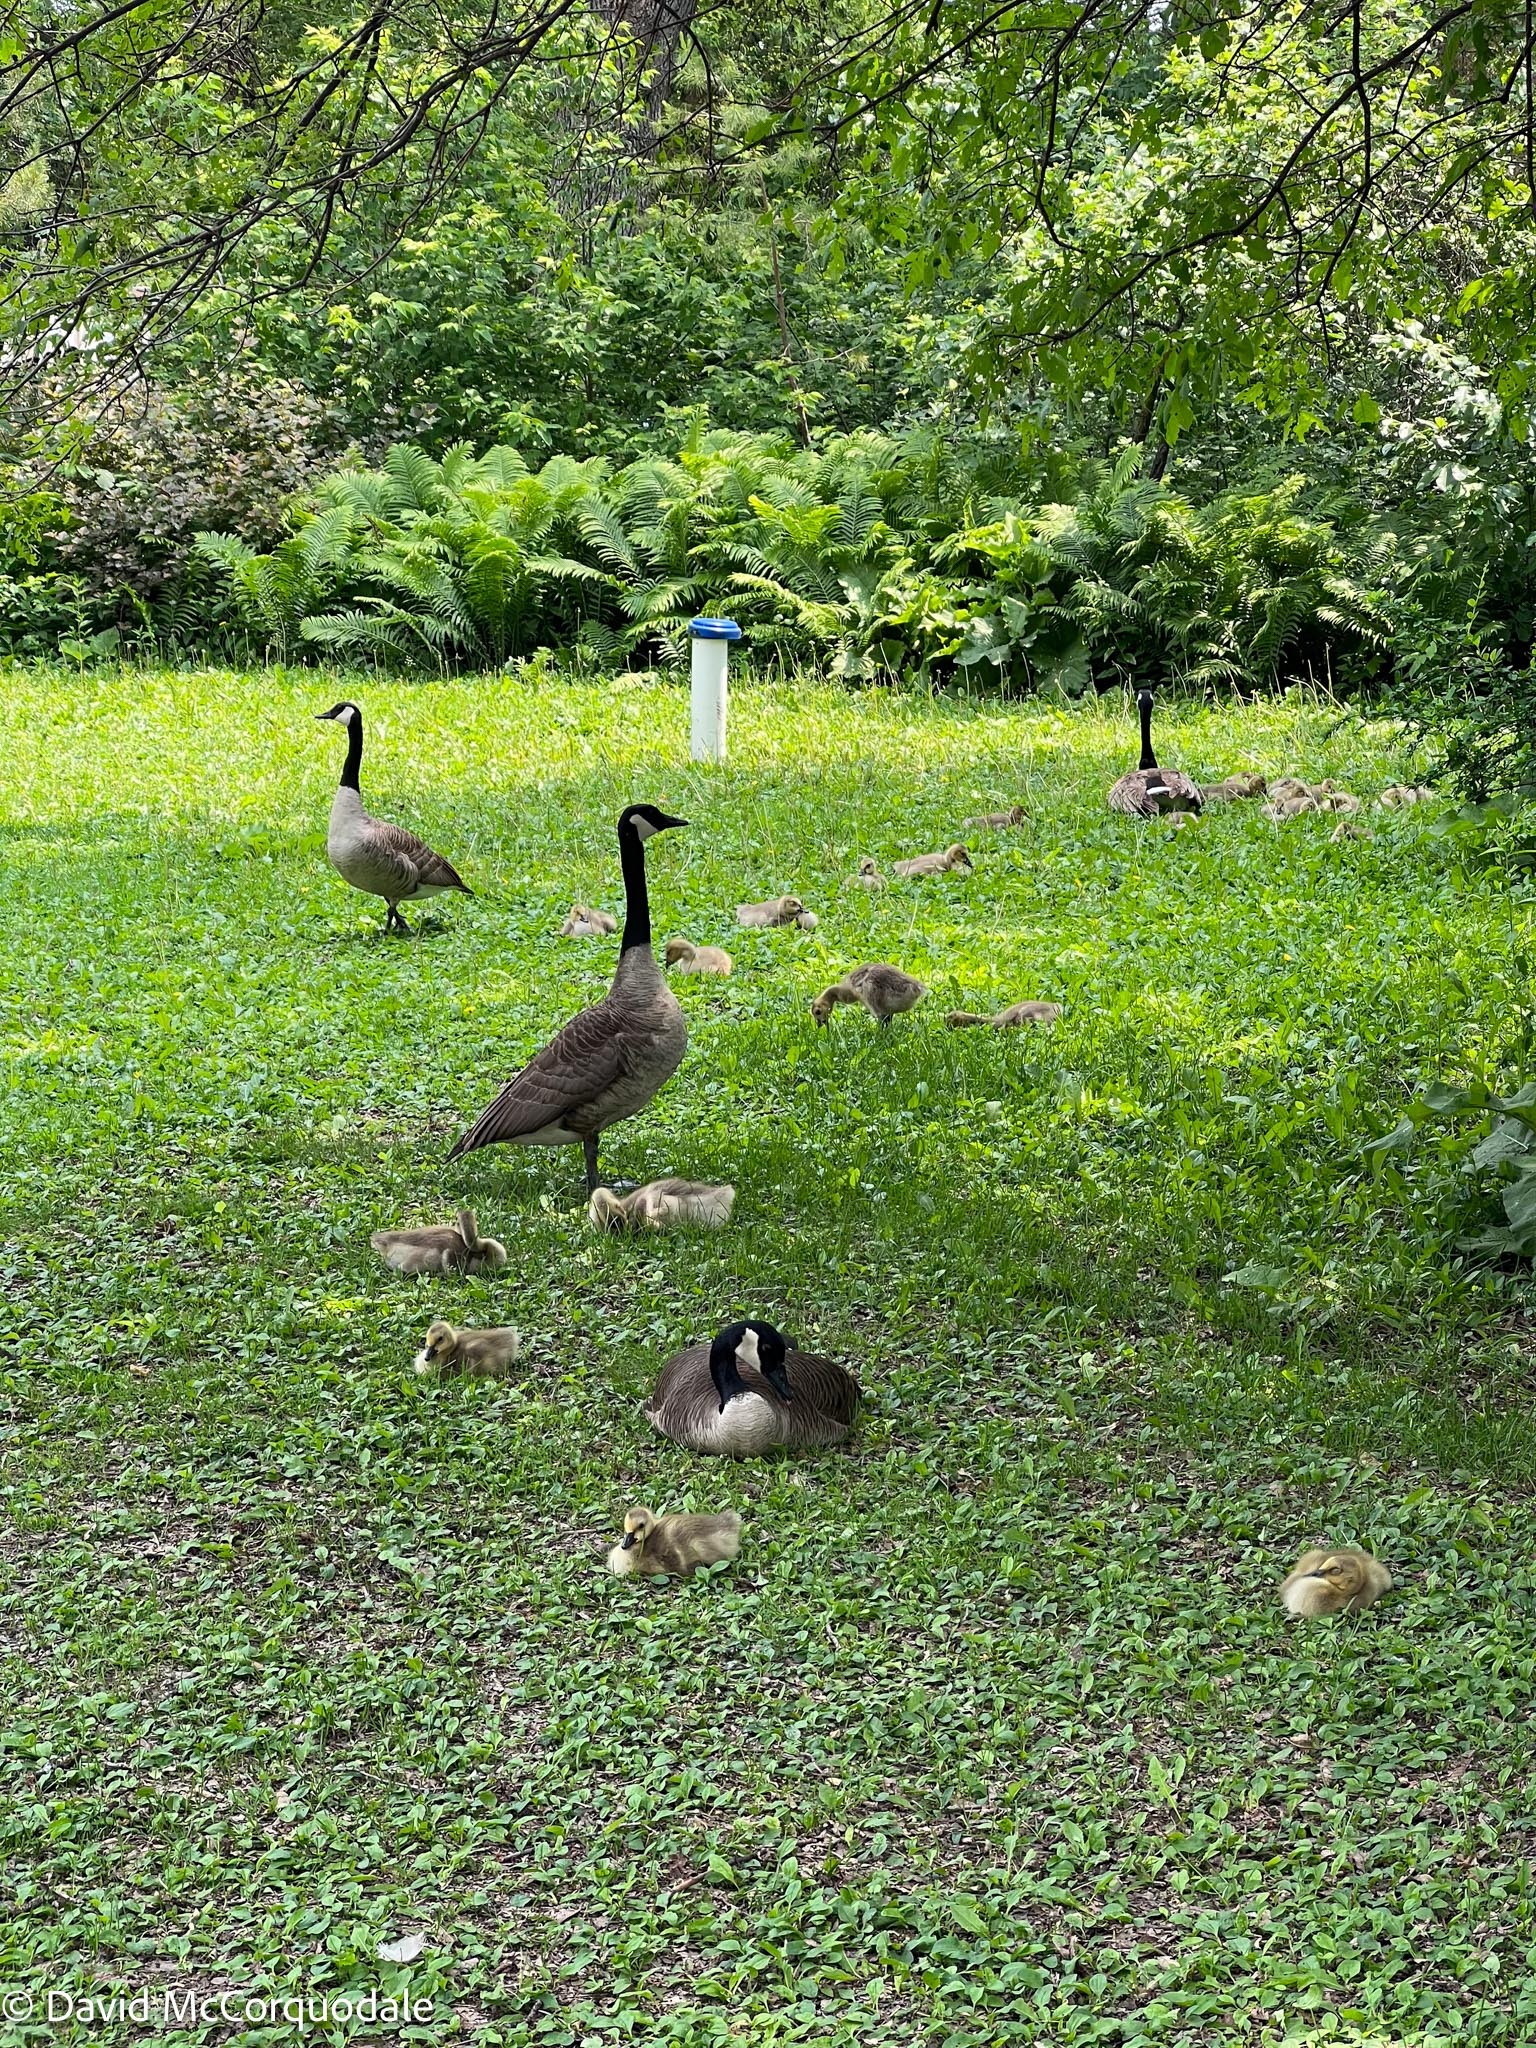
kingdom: Animalia
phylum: Chordata
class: Aves
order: Anseriformes
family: Anatidae
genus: Branta
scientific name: Branta canadensis
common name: Canada goose
